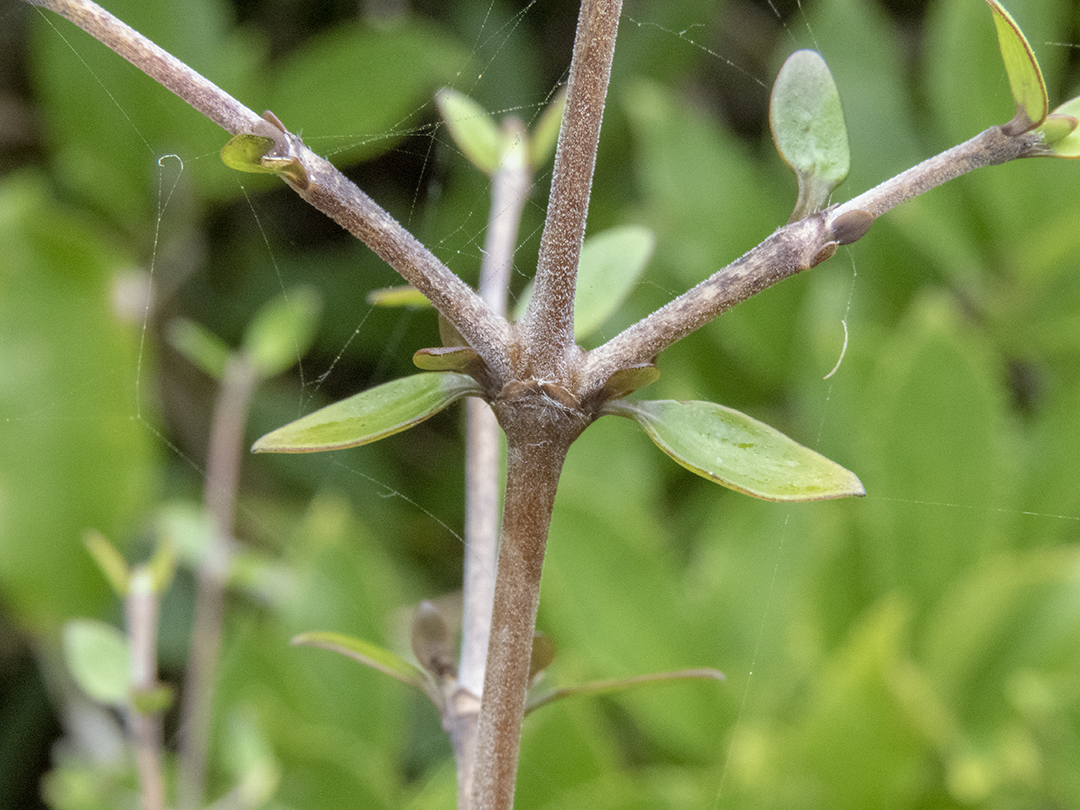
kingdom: Plantae
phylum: Tracheophyta
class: Magnoliopsida
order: Gentianales
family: Rubiaceae
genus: Coprosma
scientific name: Coprosma propinqua
